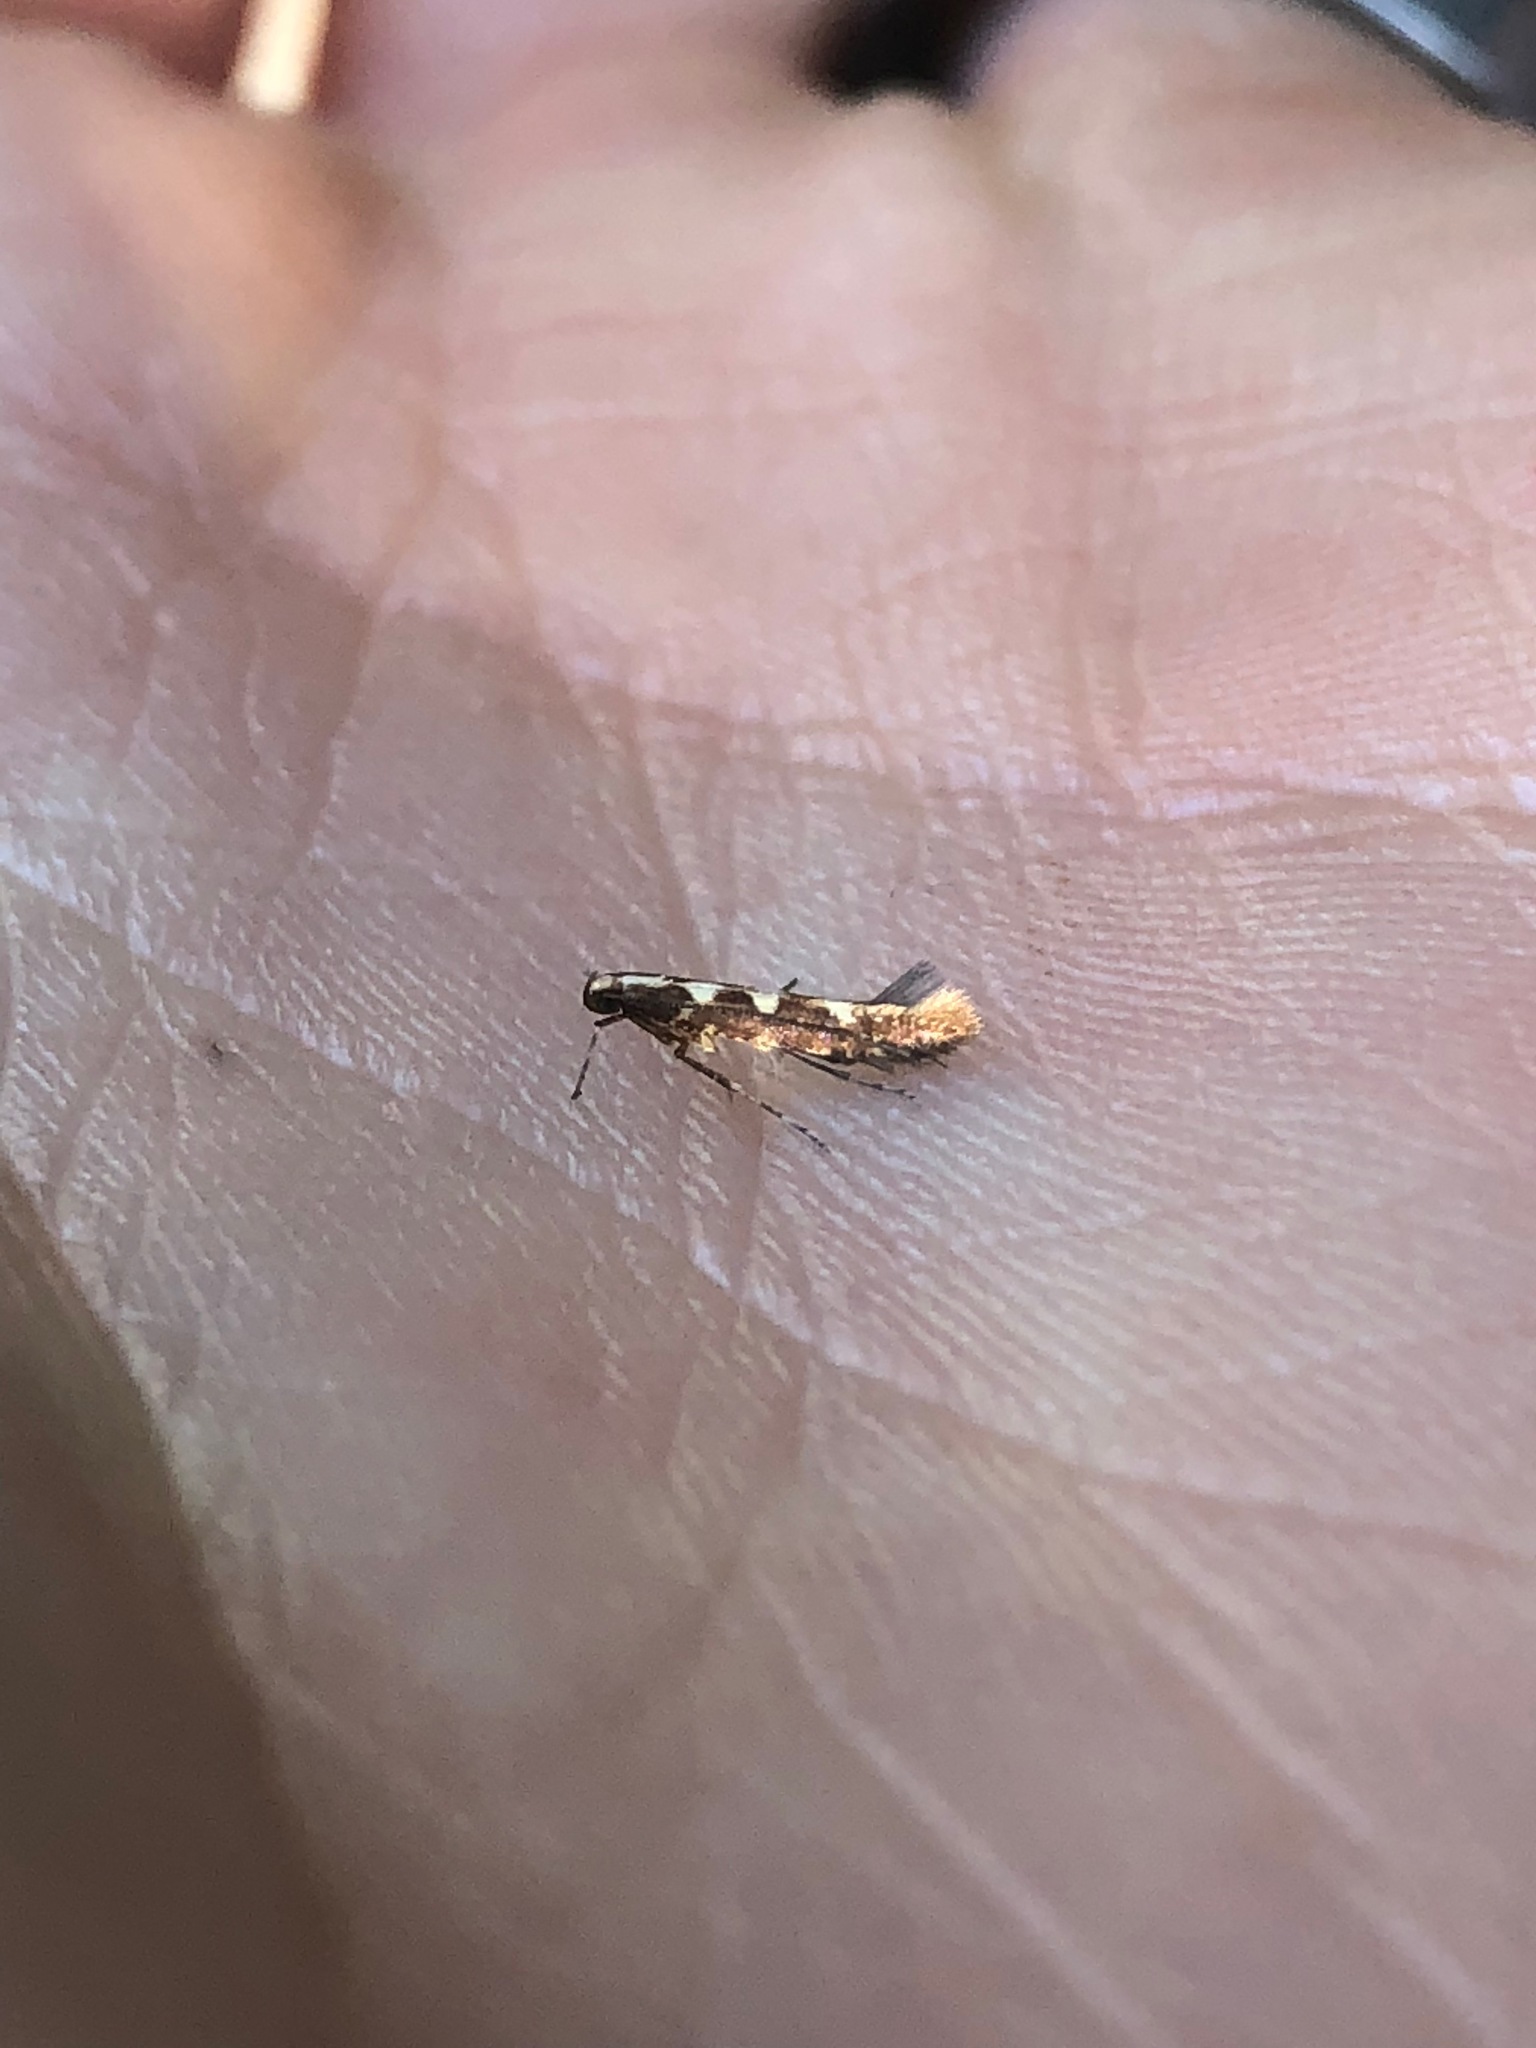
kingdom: Animalia
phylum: Arthropoda
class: Insecta
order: Lepidoptera
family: Gracillariidae
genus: Caloptilia
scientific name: Caloptilia selenitis
